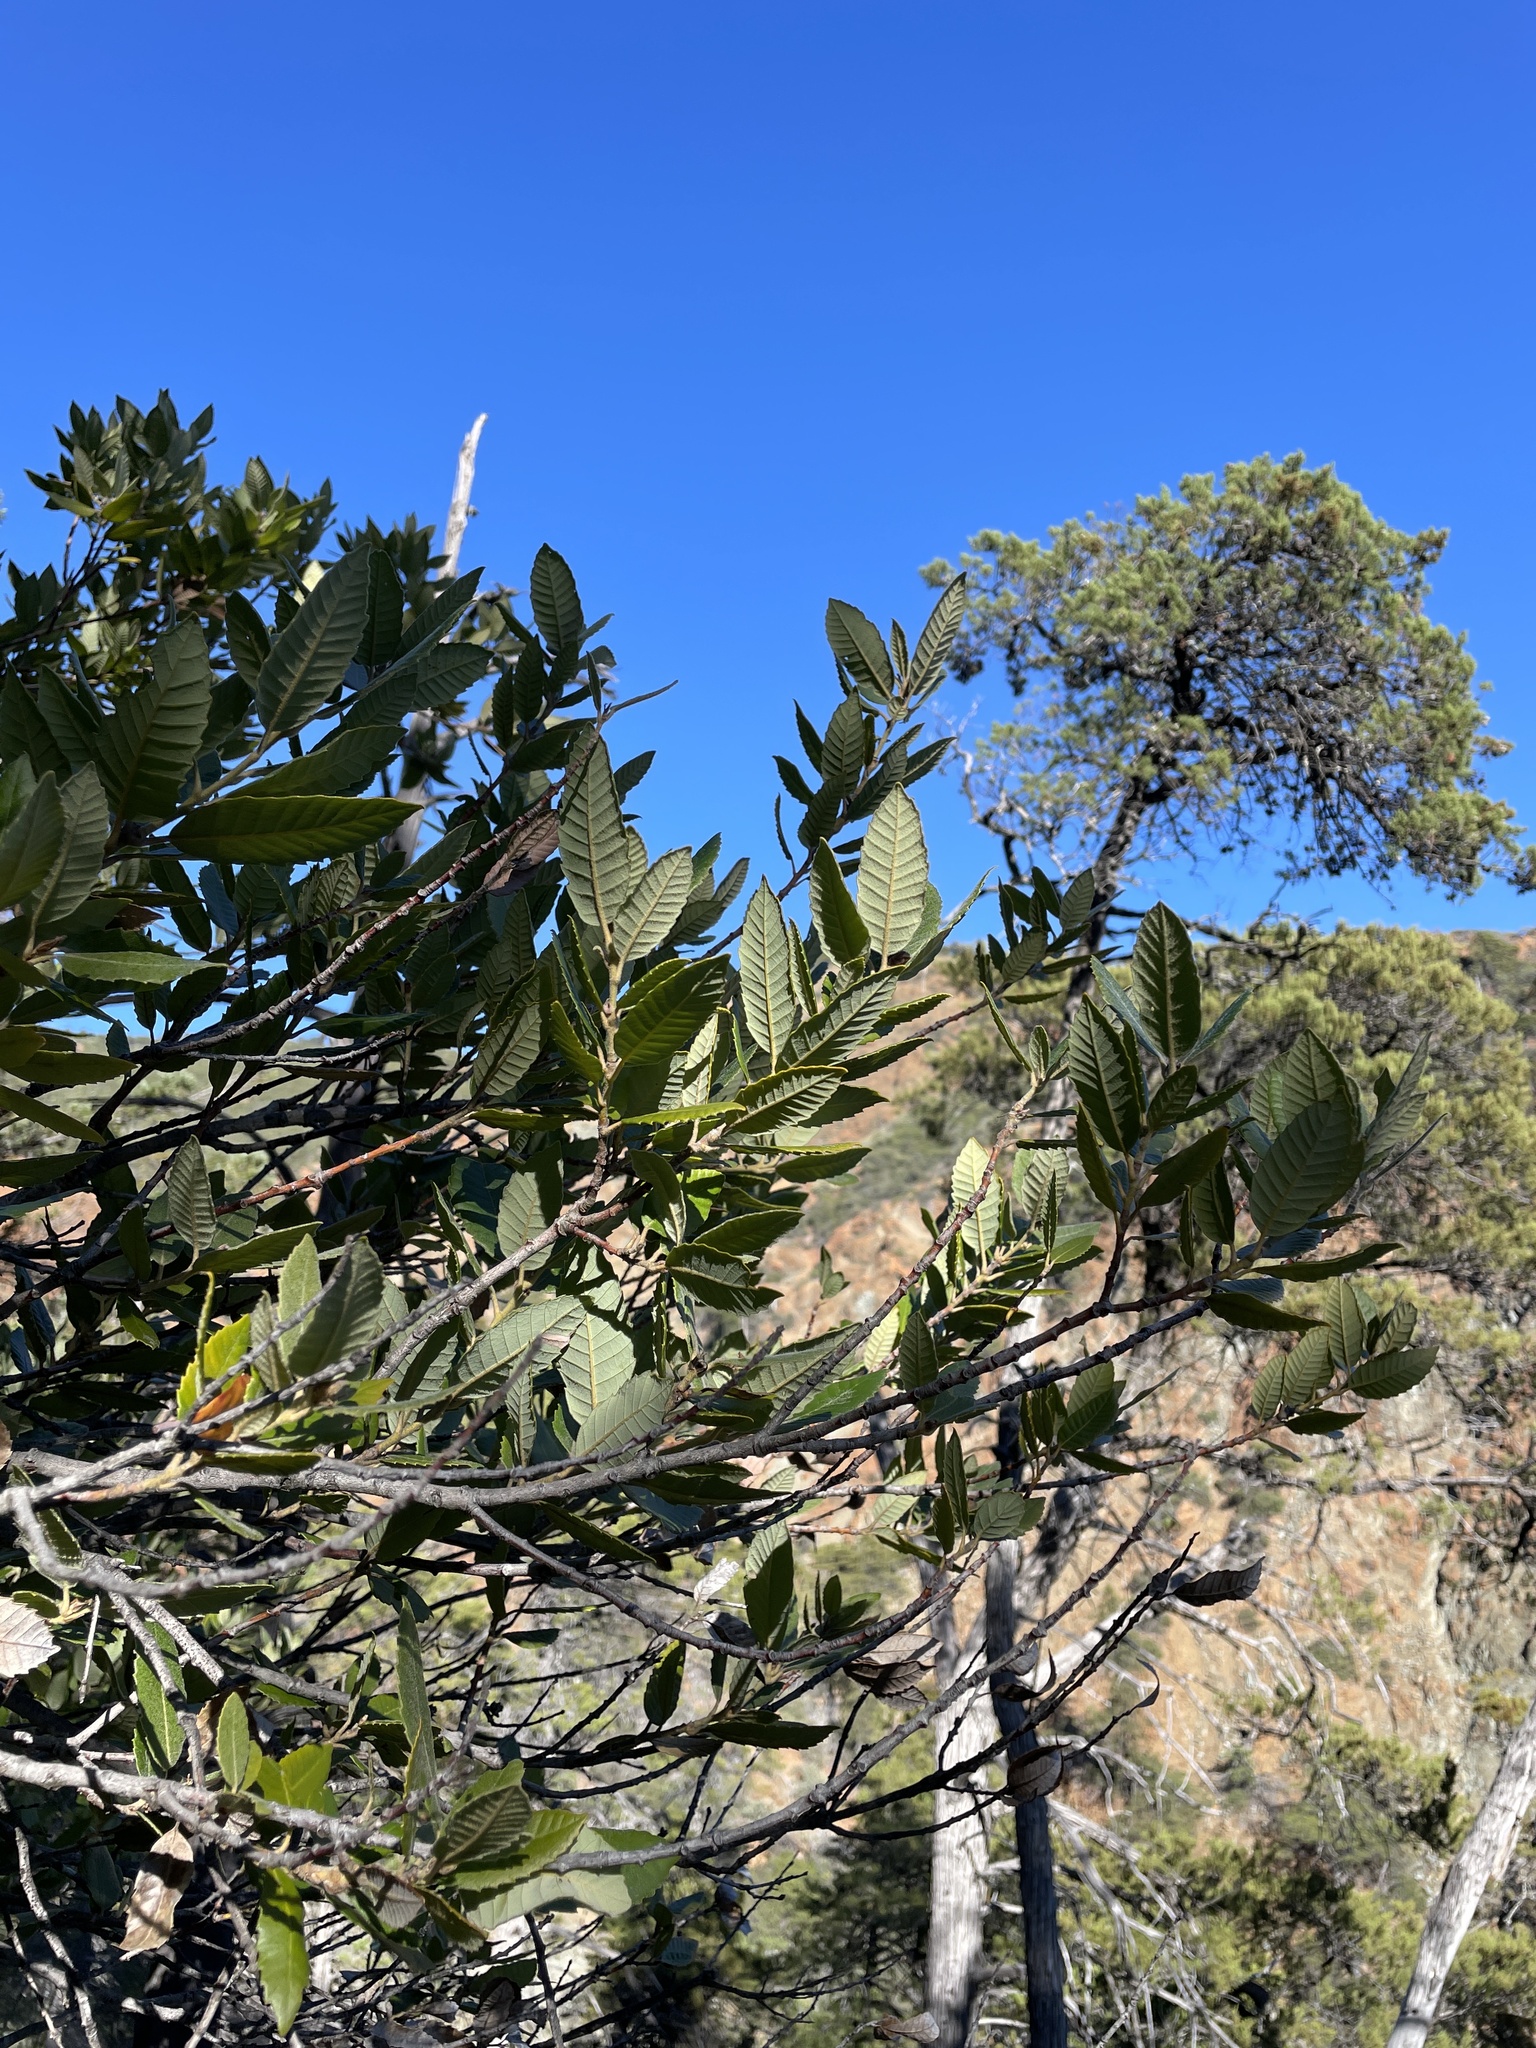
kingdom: Plantae
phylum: Tracheophyta
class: Magnoliopsida
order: Fagales
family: Fagaceae
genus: Notholithocarpus
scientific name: Notholithocarpus densiflorus
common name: Tan bark oak
